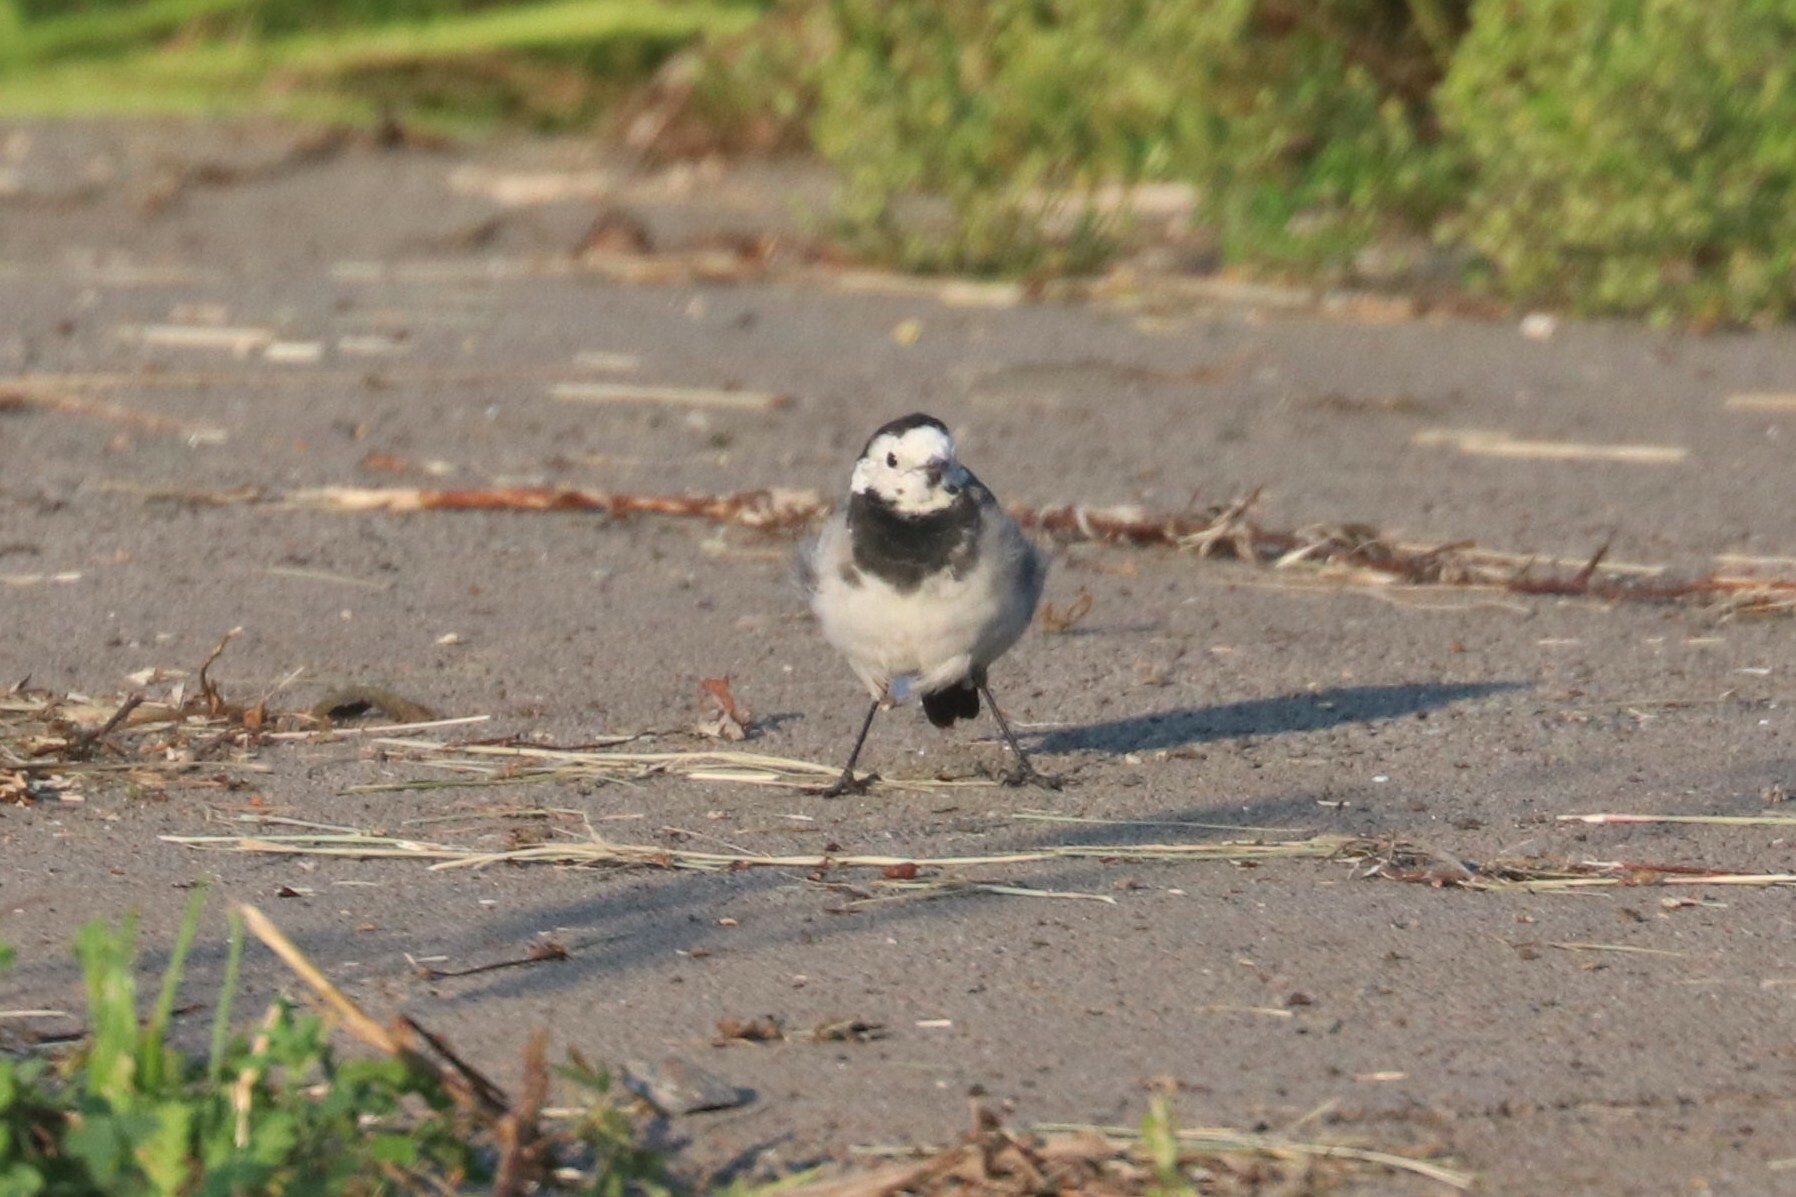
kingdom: Animalia
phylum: Chordata
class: Aves
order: Passeriformes
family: Motacillidae
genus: Motacilla
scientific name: Motacilla alba
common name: White wagtail
